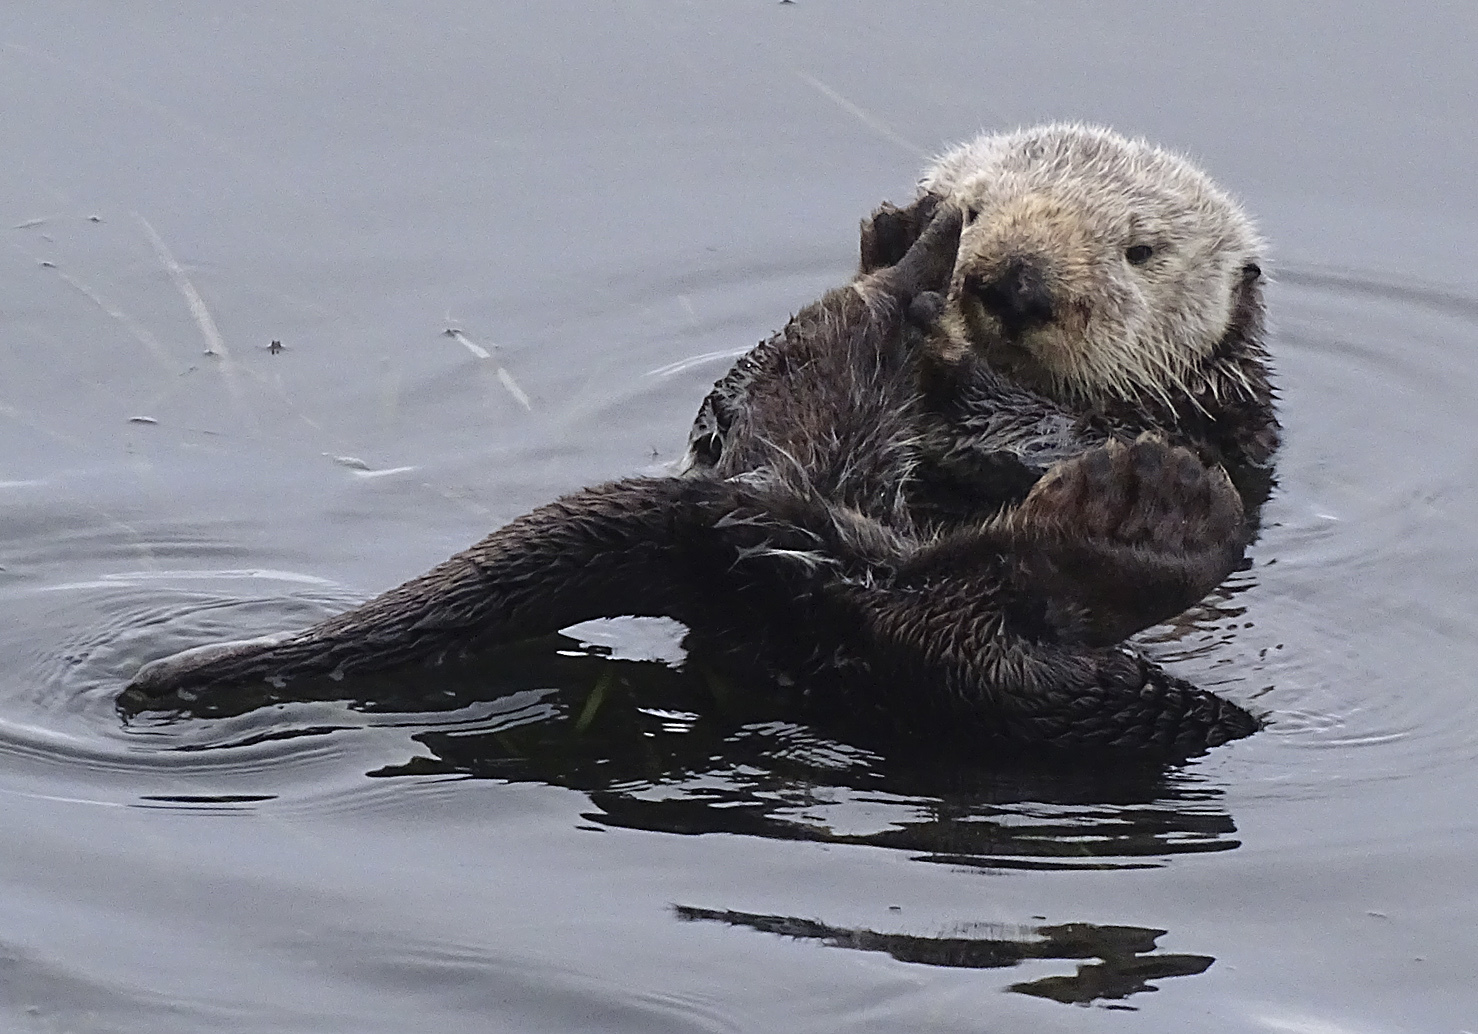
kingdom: Animalia
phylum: Chordata
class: Mammalia
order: Carnivora
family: Mustelidae
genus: Enhydra
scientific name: Enhydra lutris
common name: Sea otter
